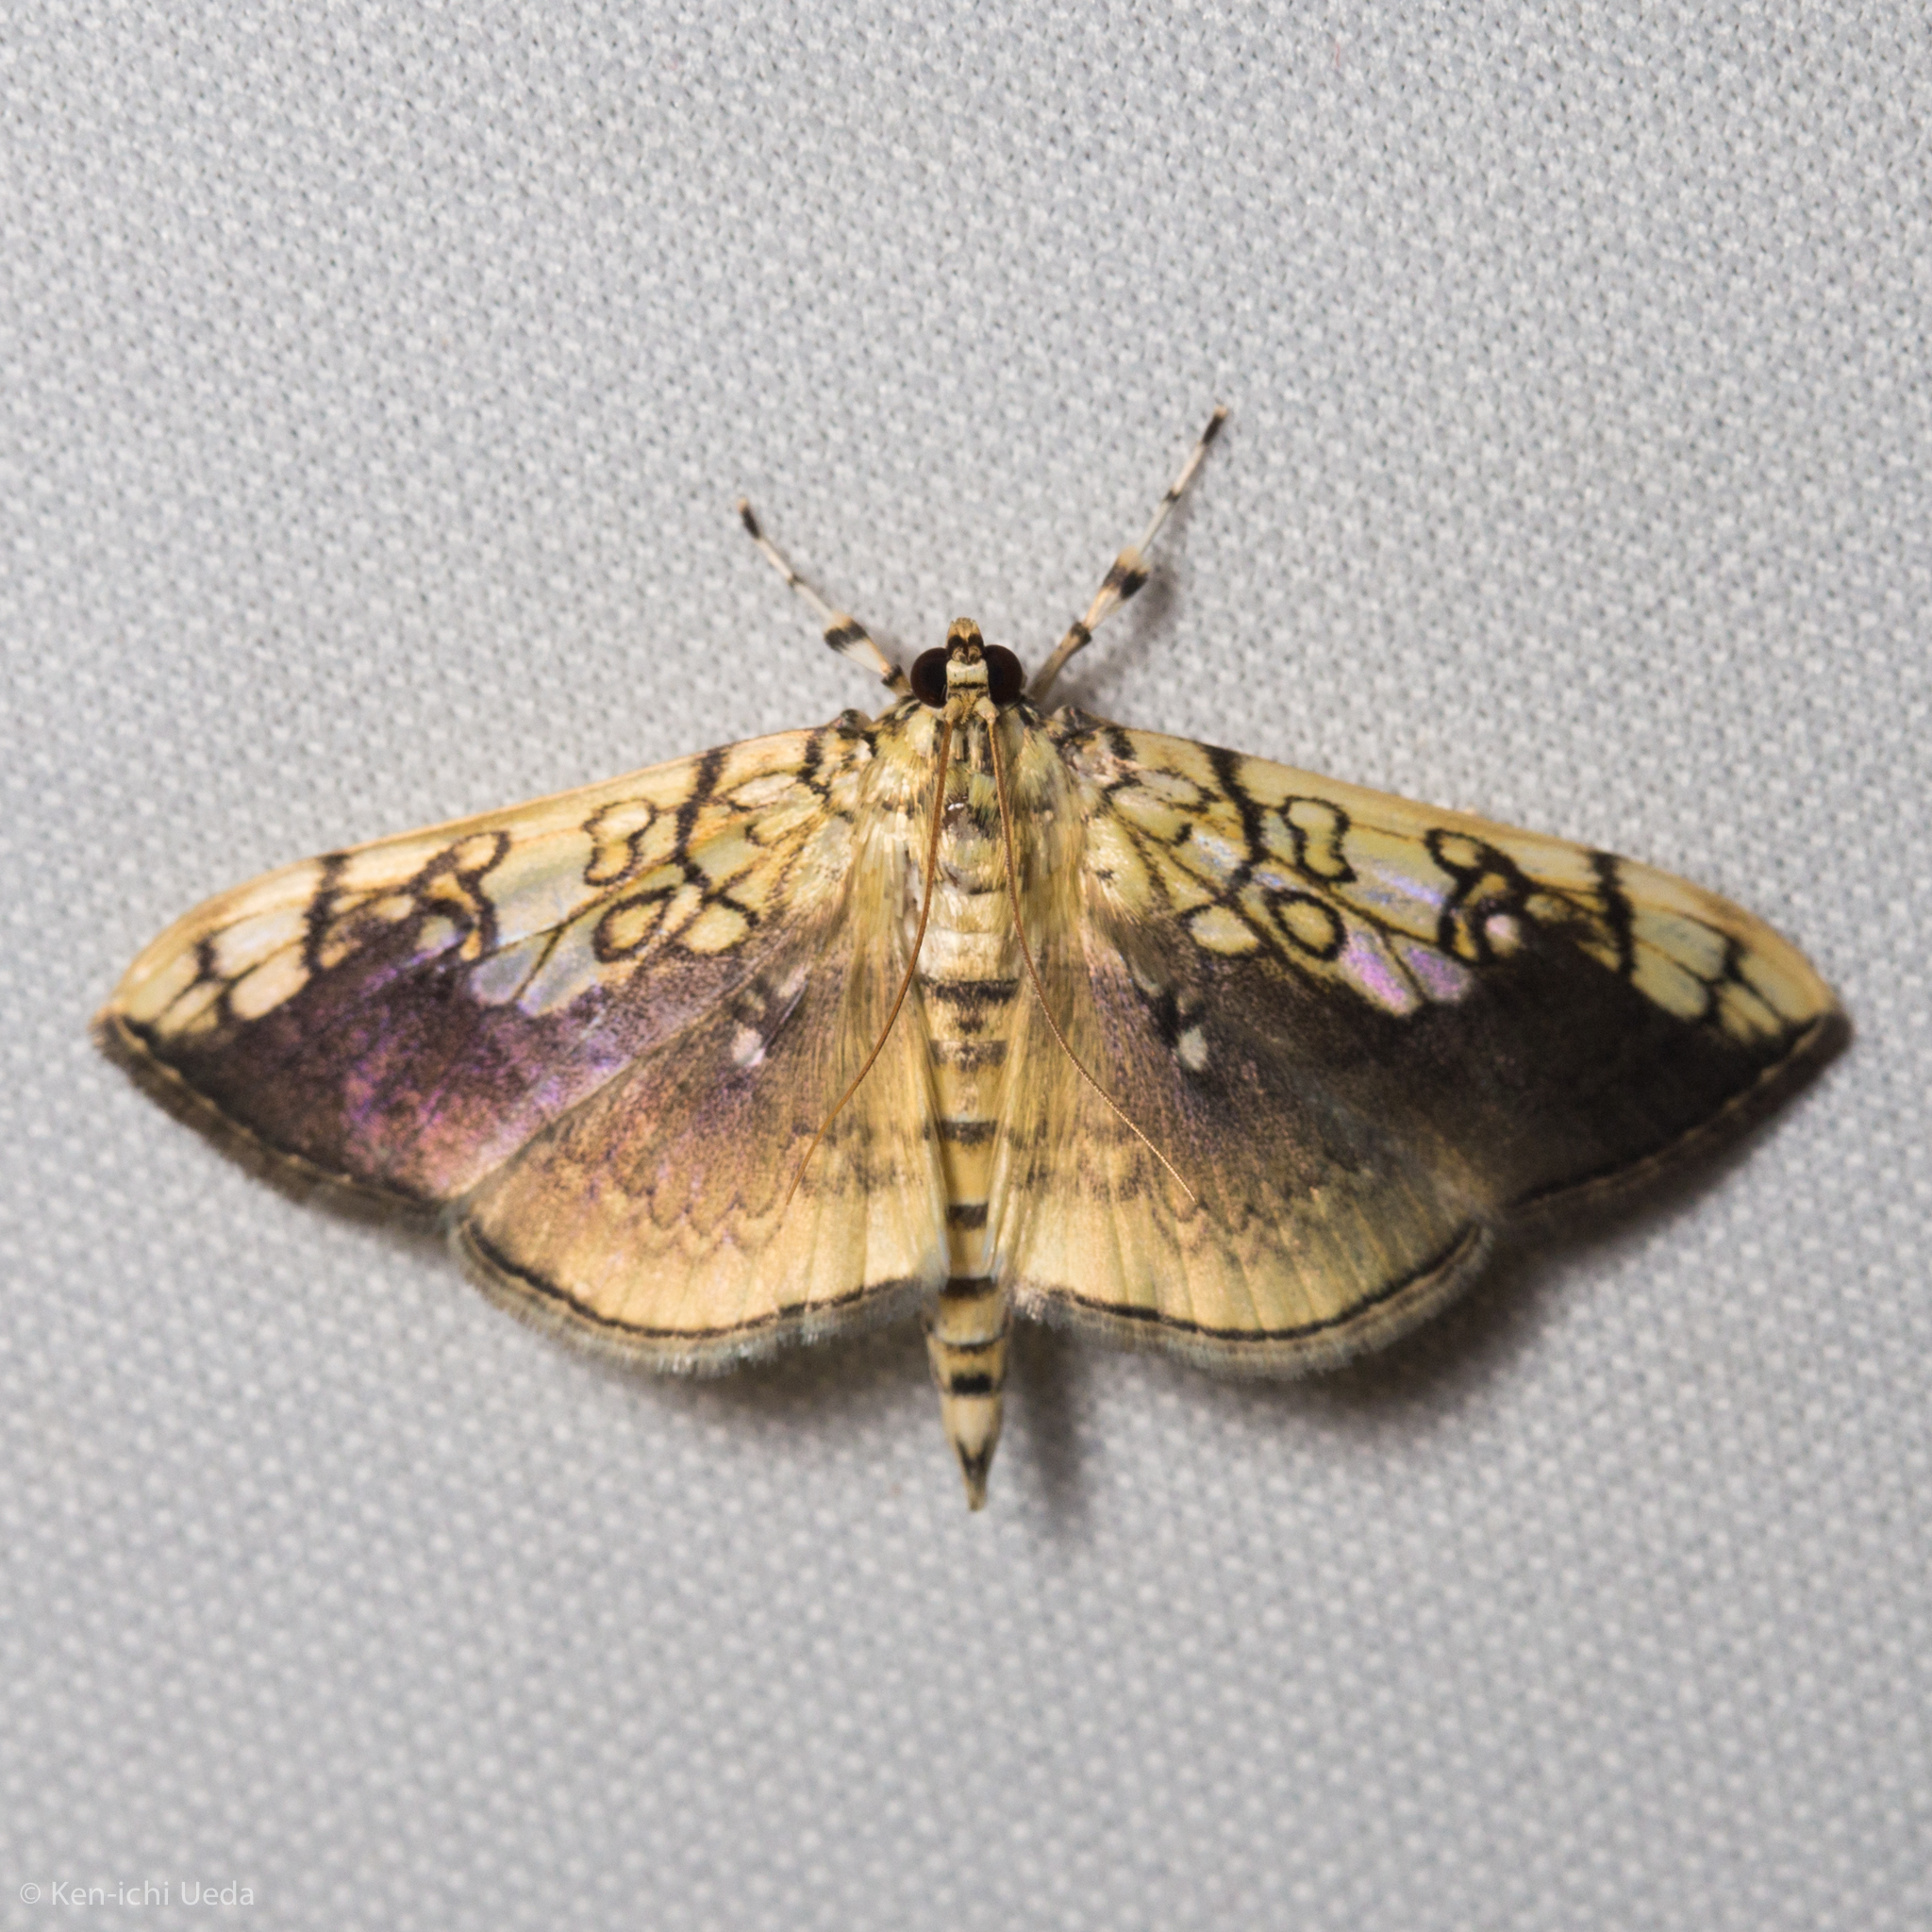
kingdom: Animalia
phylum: Arthropoda
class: Insecta
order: Lepidoptera
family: Crambidae
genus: Pantographa
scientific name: Pantographa limata
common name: Basswood leafroller moth
